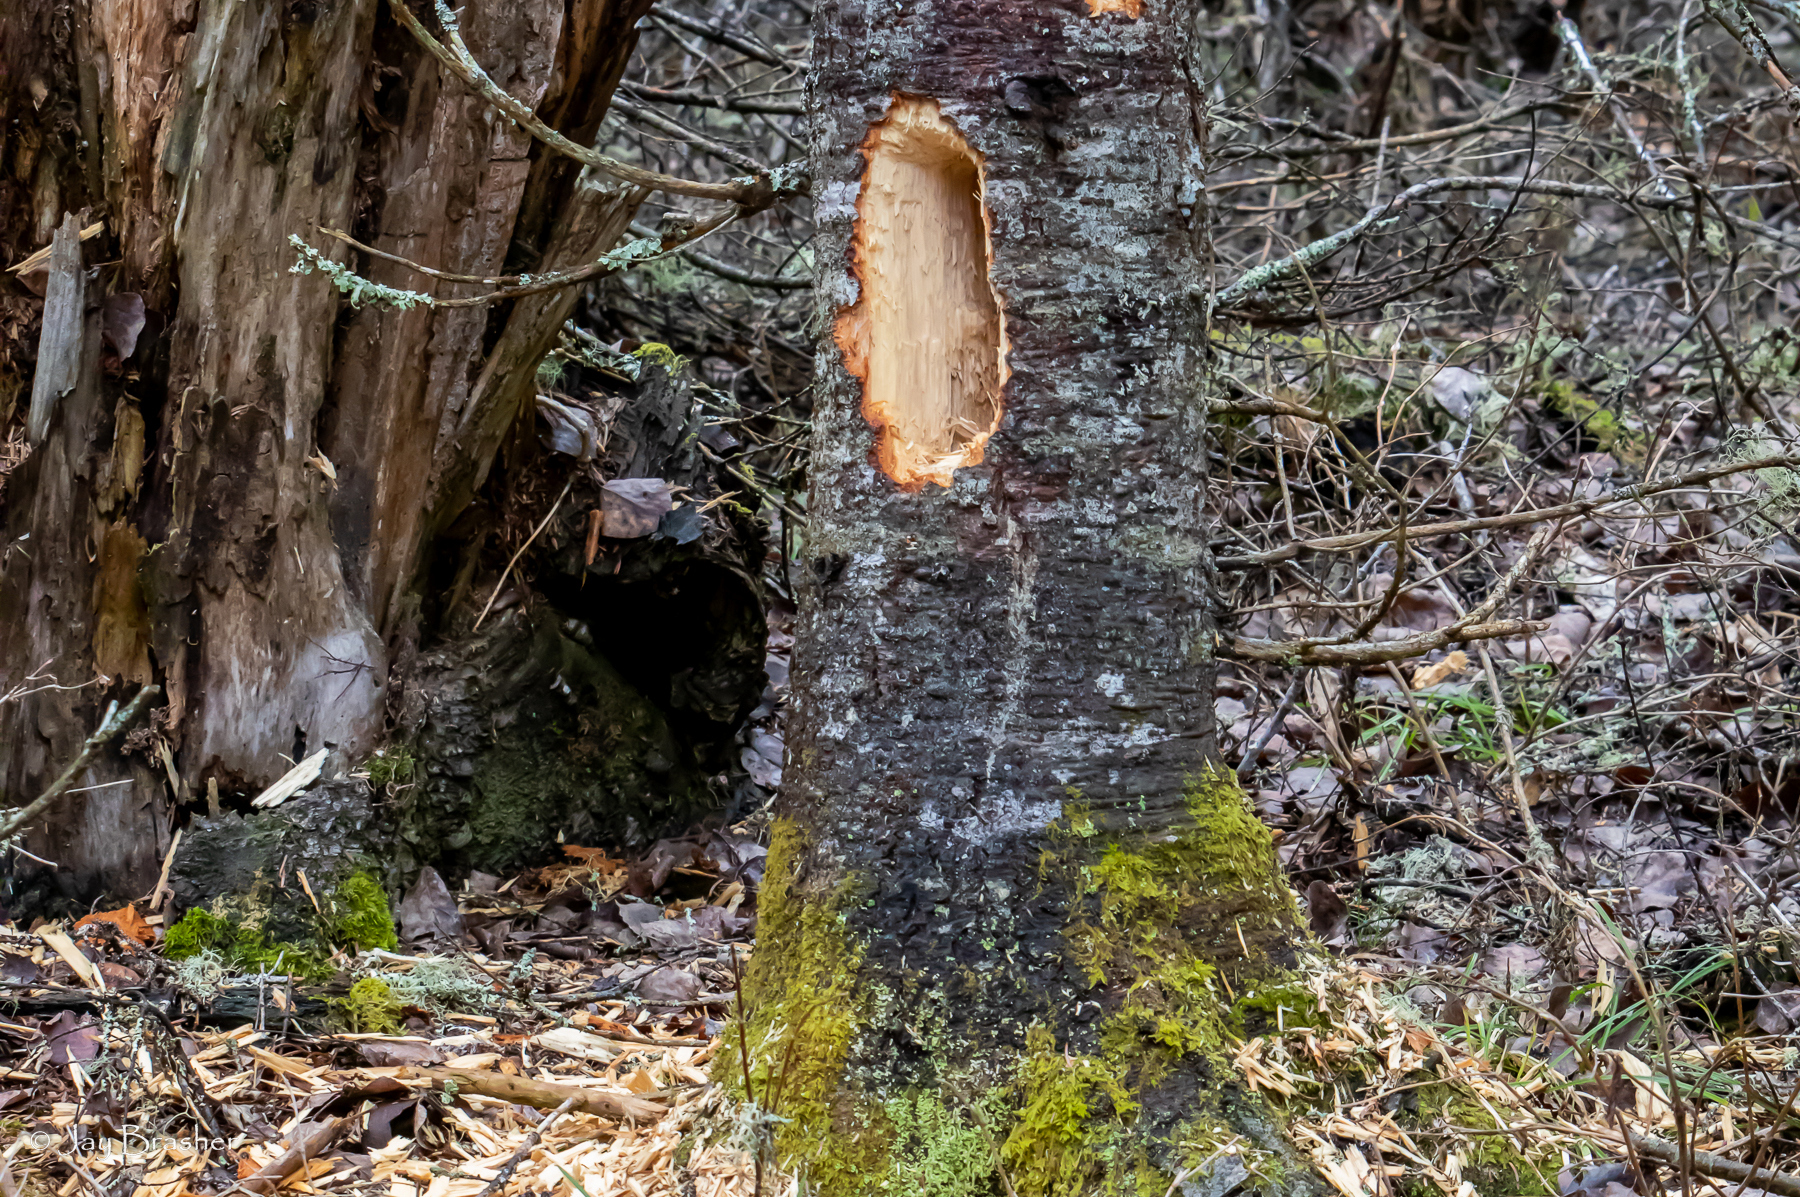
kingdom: Animalia
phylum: Chordata
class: Aves
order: Piciformes
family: Picidae
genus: Dryocopus
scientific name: Dryocopus pileatus
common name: Pileated woodpecker
